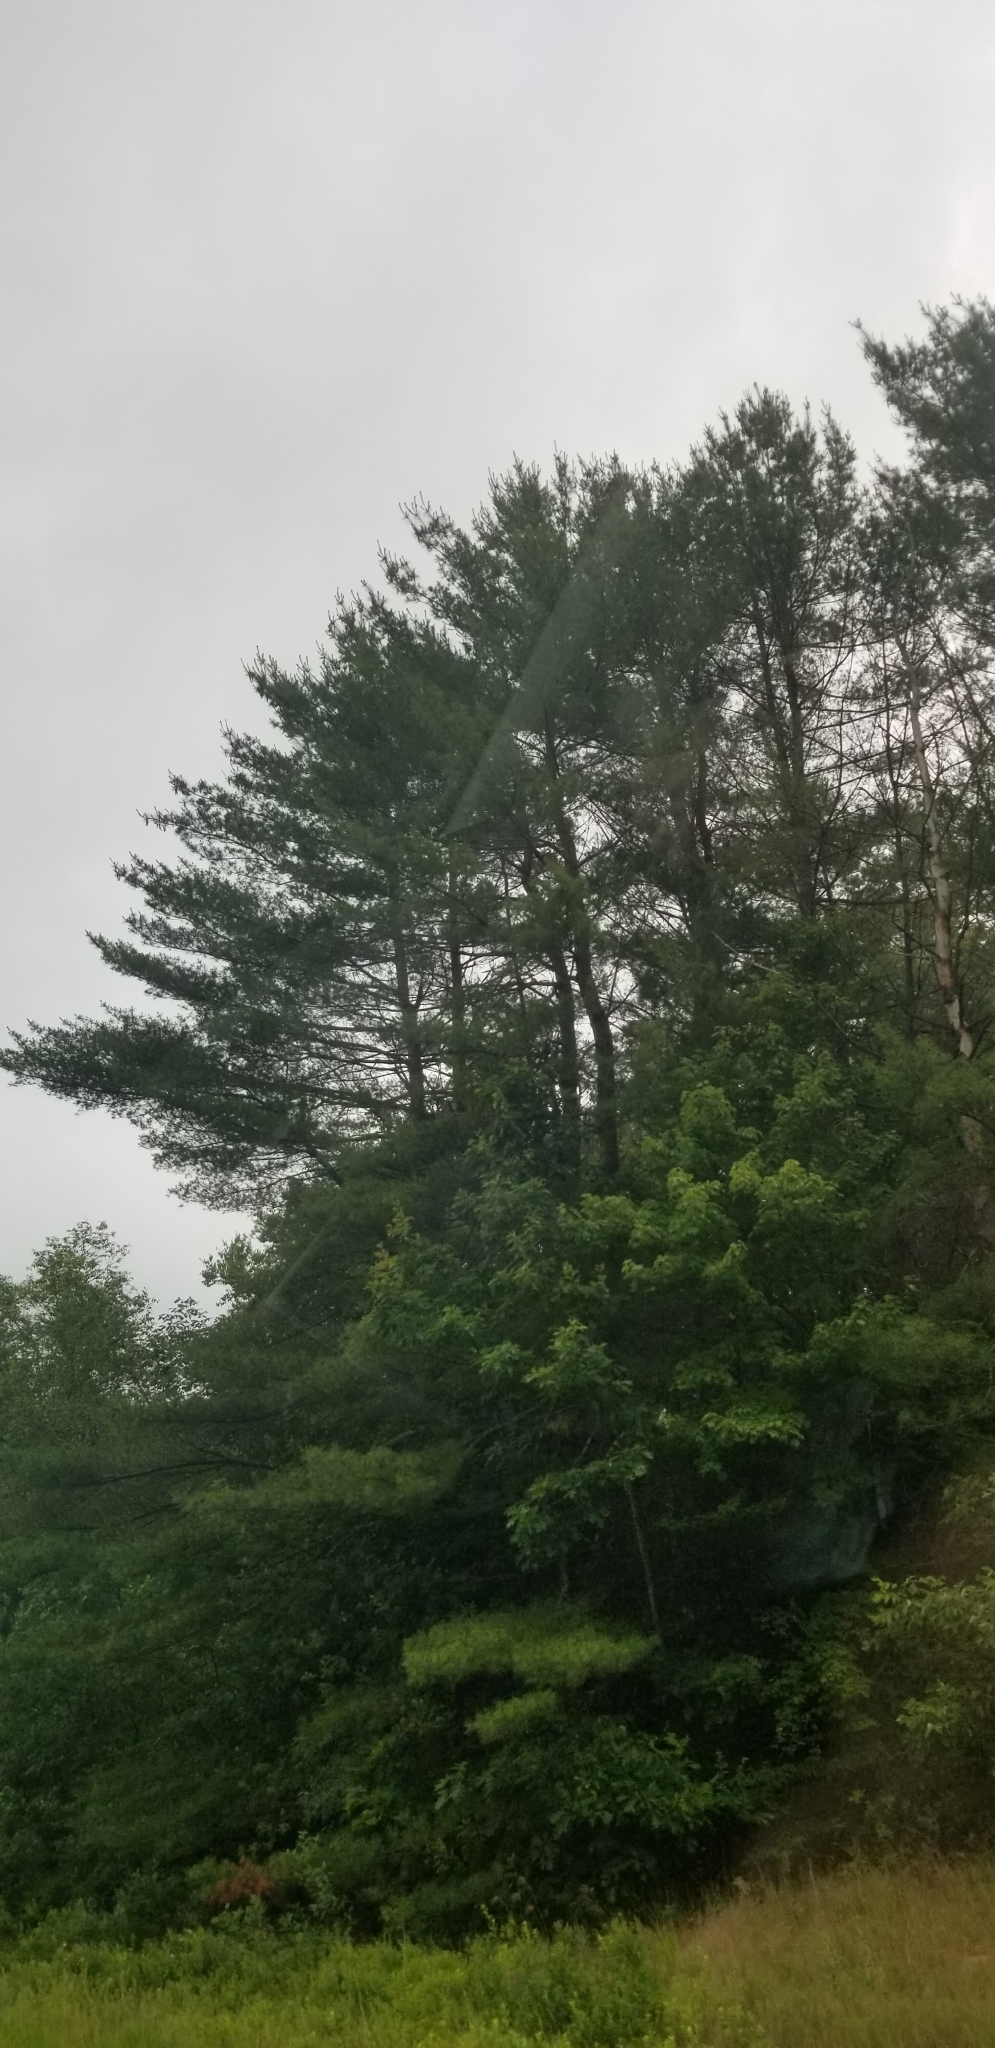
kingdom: Plantae
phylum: Tracheophyta
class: Pinopsida
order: Pinales
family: Pinaceae
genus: Pinus
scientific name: Pinus strobus
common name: Weymouth pine
